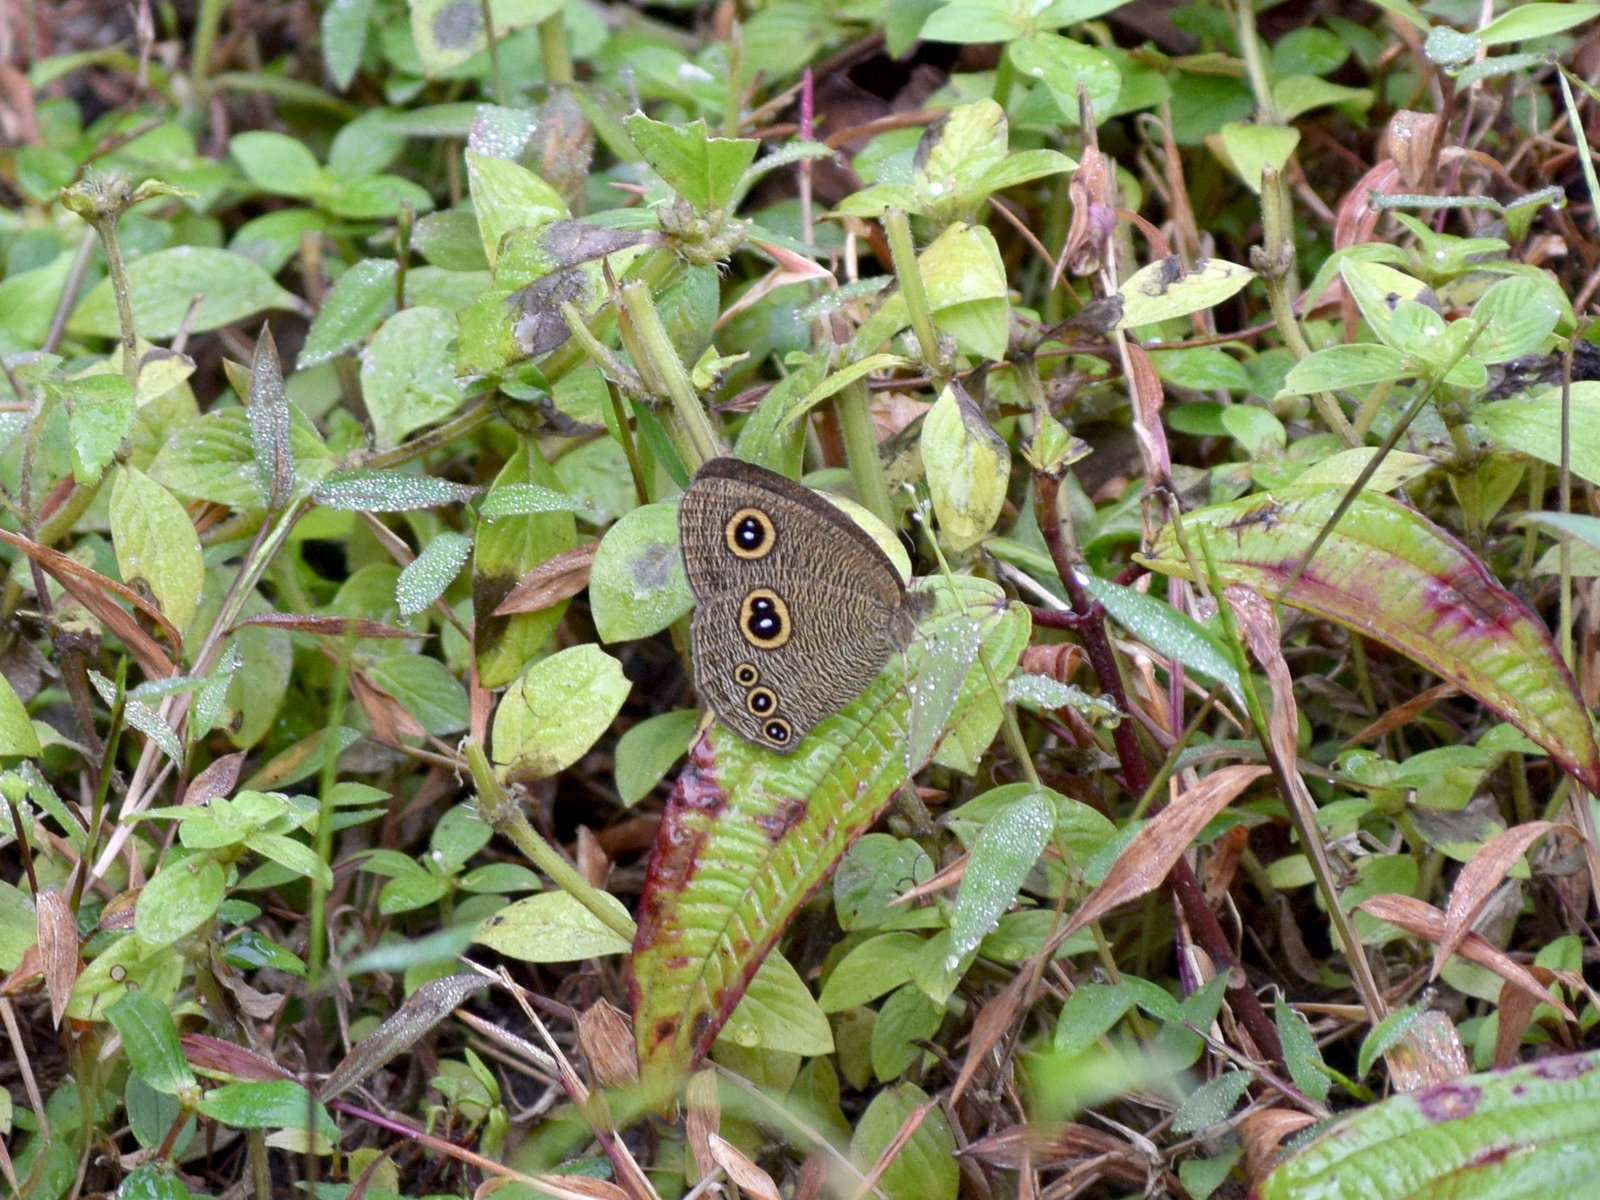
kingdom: Animalia
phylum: Arthropoda
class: Insecta
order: Lepidoptera
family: Nymphalidae
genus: Ypthima
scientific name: Ypthima nikaea
